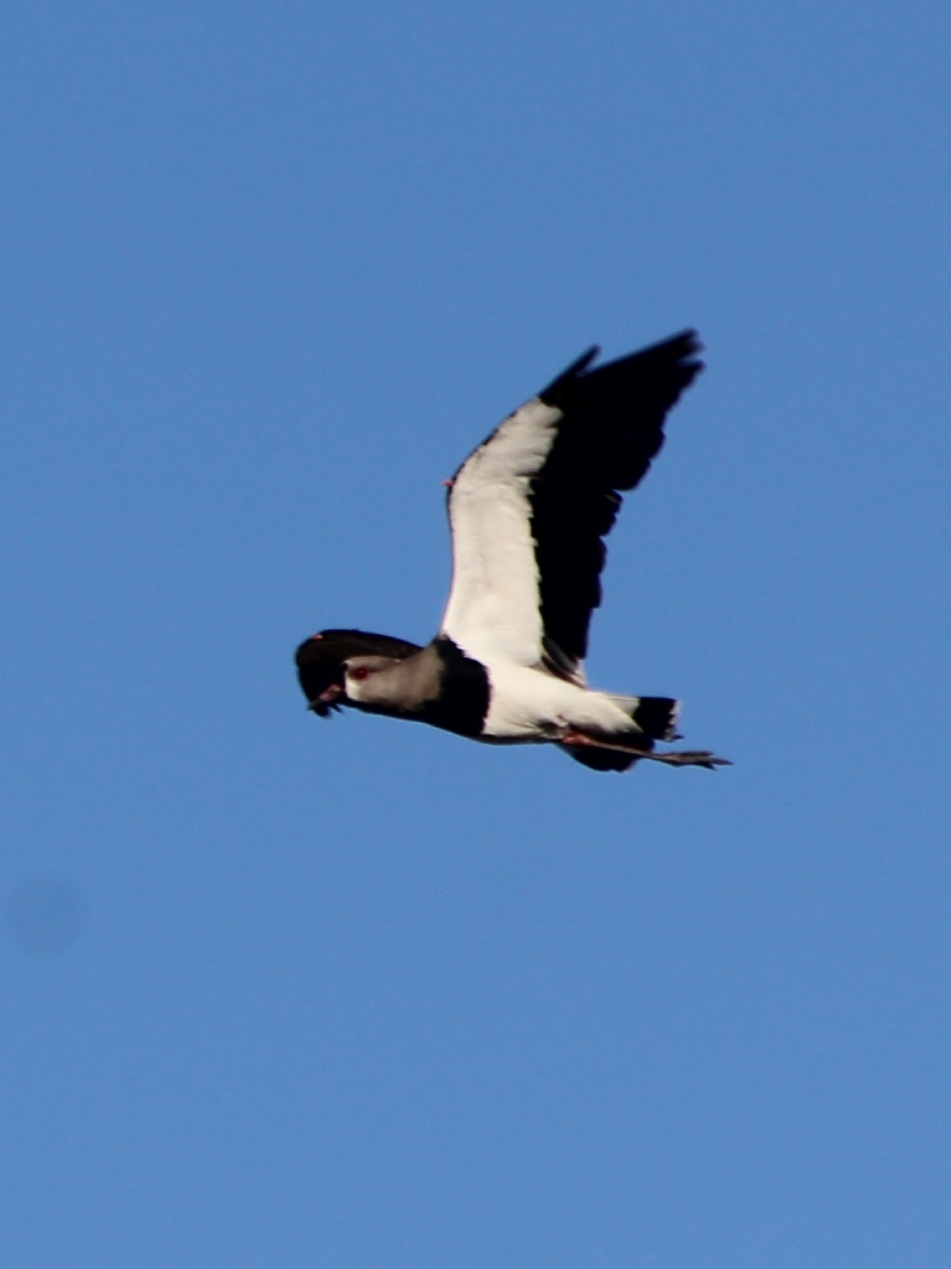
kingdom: Animalia
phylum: Chordata
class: Aves
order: Charadriiformes
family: Charadriidae
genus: Vanellus
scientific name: Vanellus chilensis
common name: Southern lapwing
